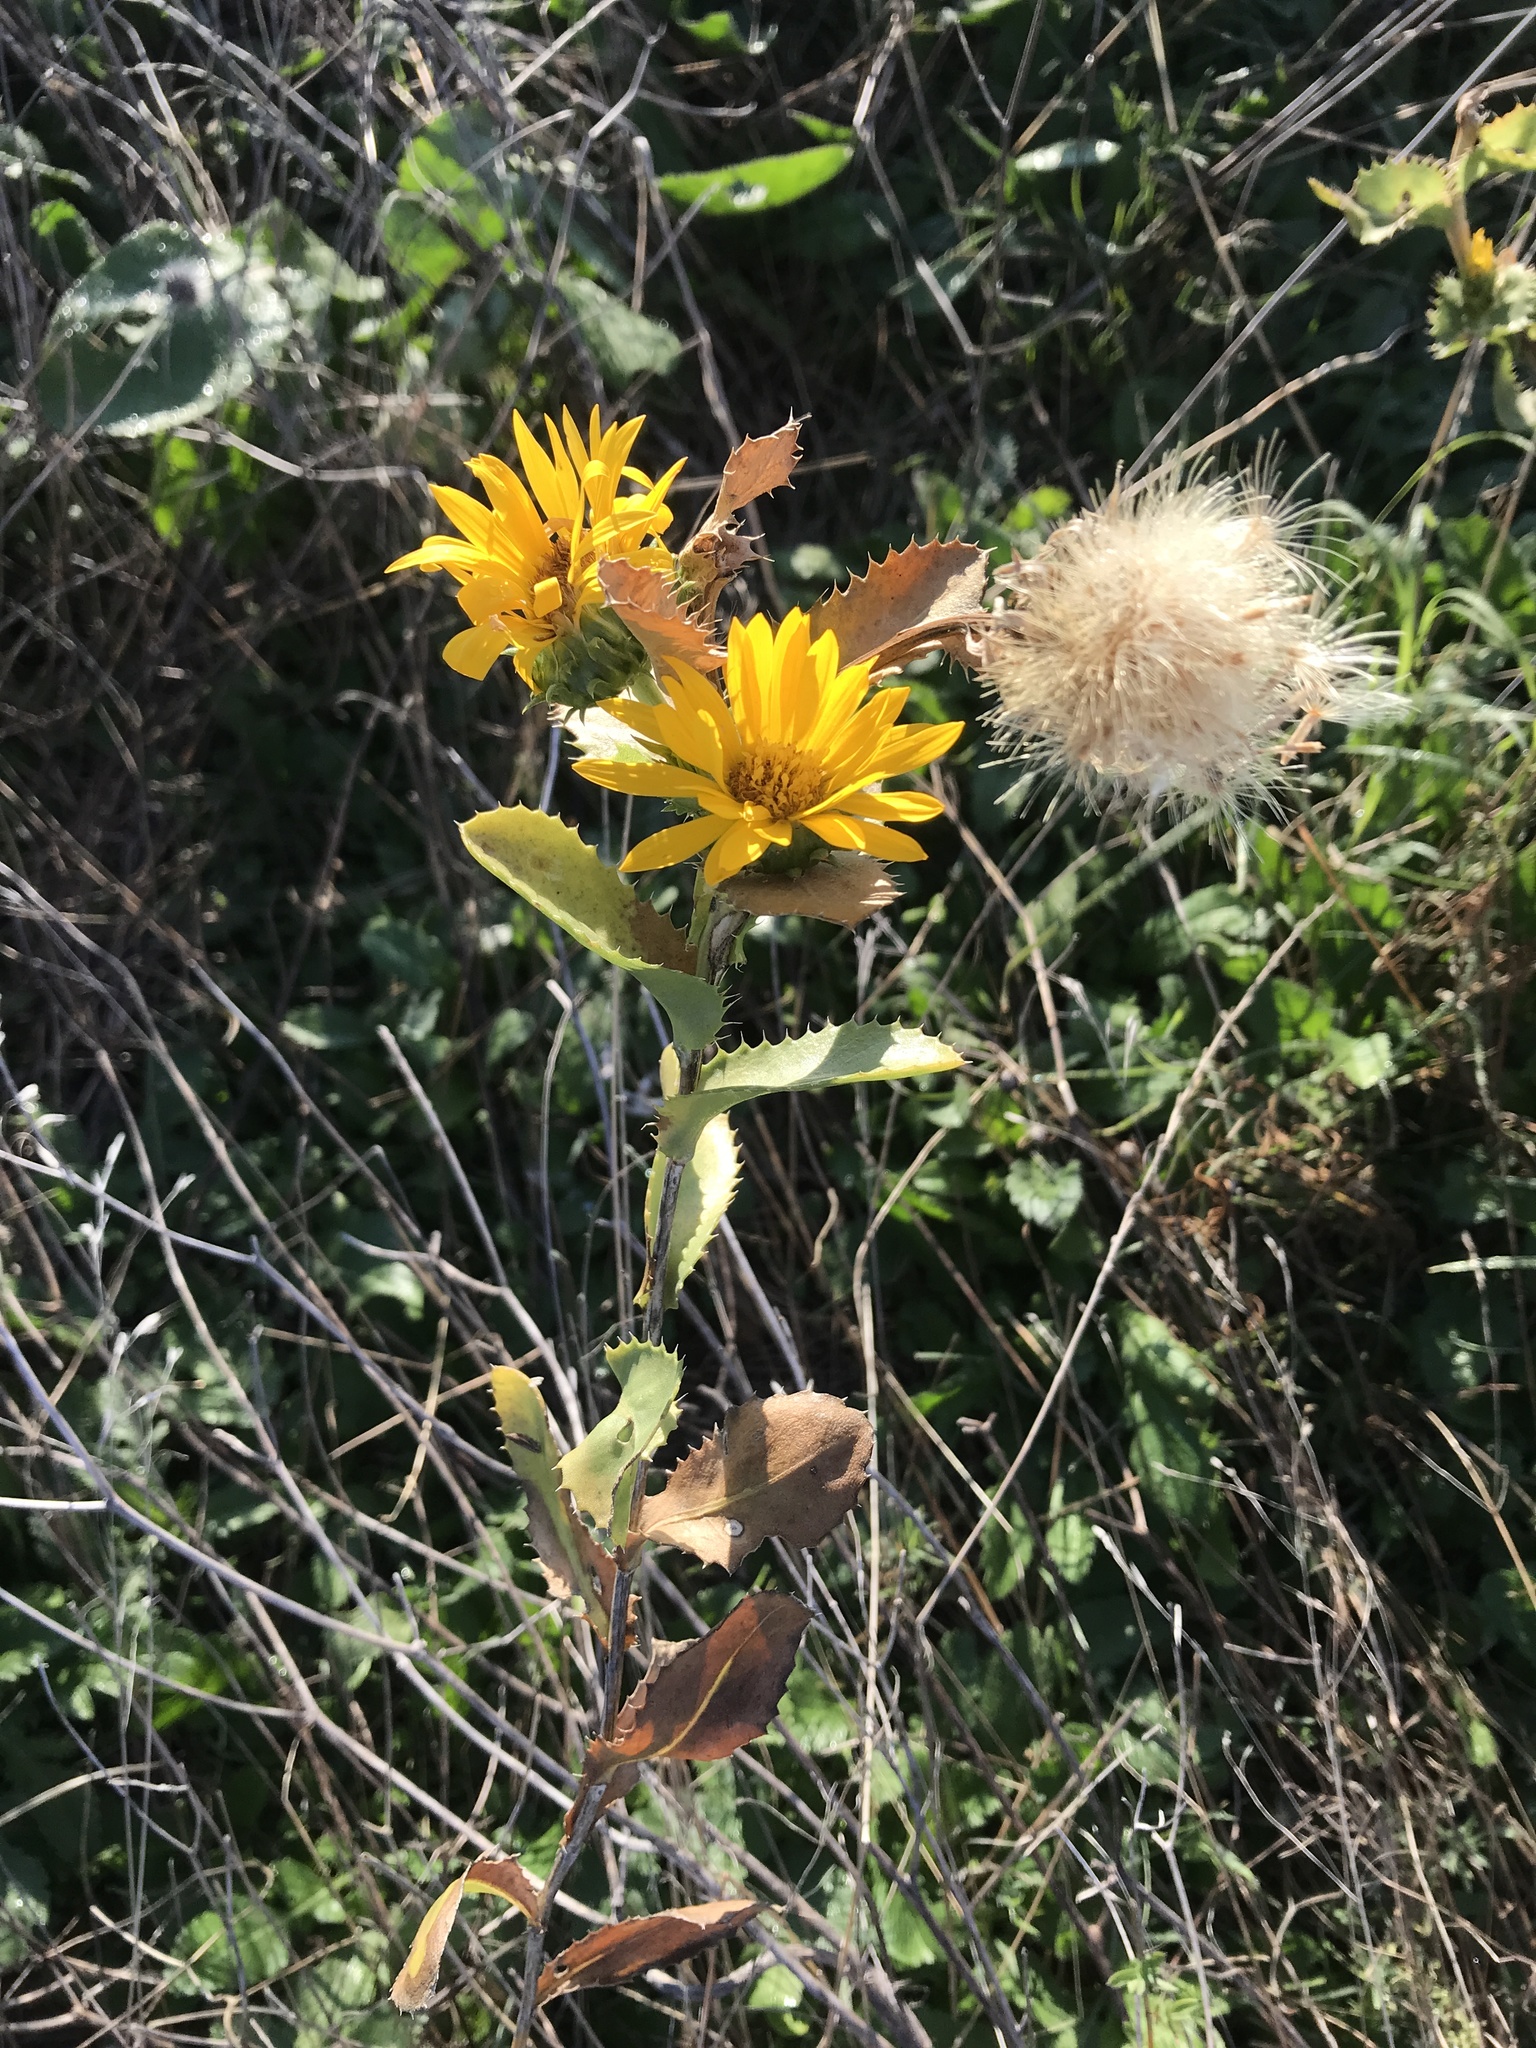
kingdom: Plantae
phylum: Tracheophyta
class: Magnoliopsida
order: Asterales
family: Asteraceae
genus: Grindelia
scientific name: Grindelia ciliata
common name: Goldenweed
